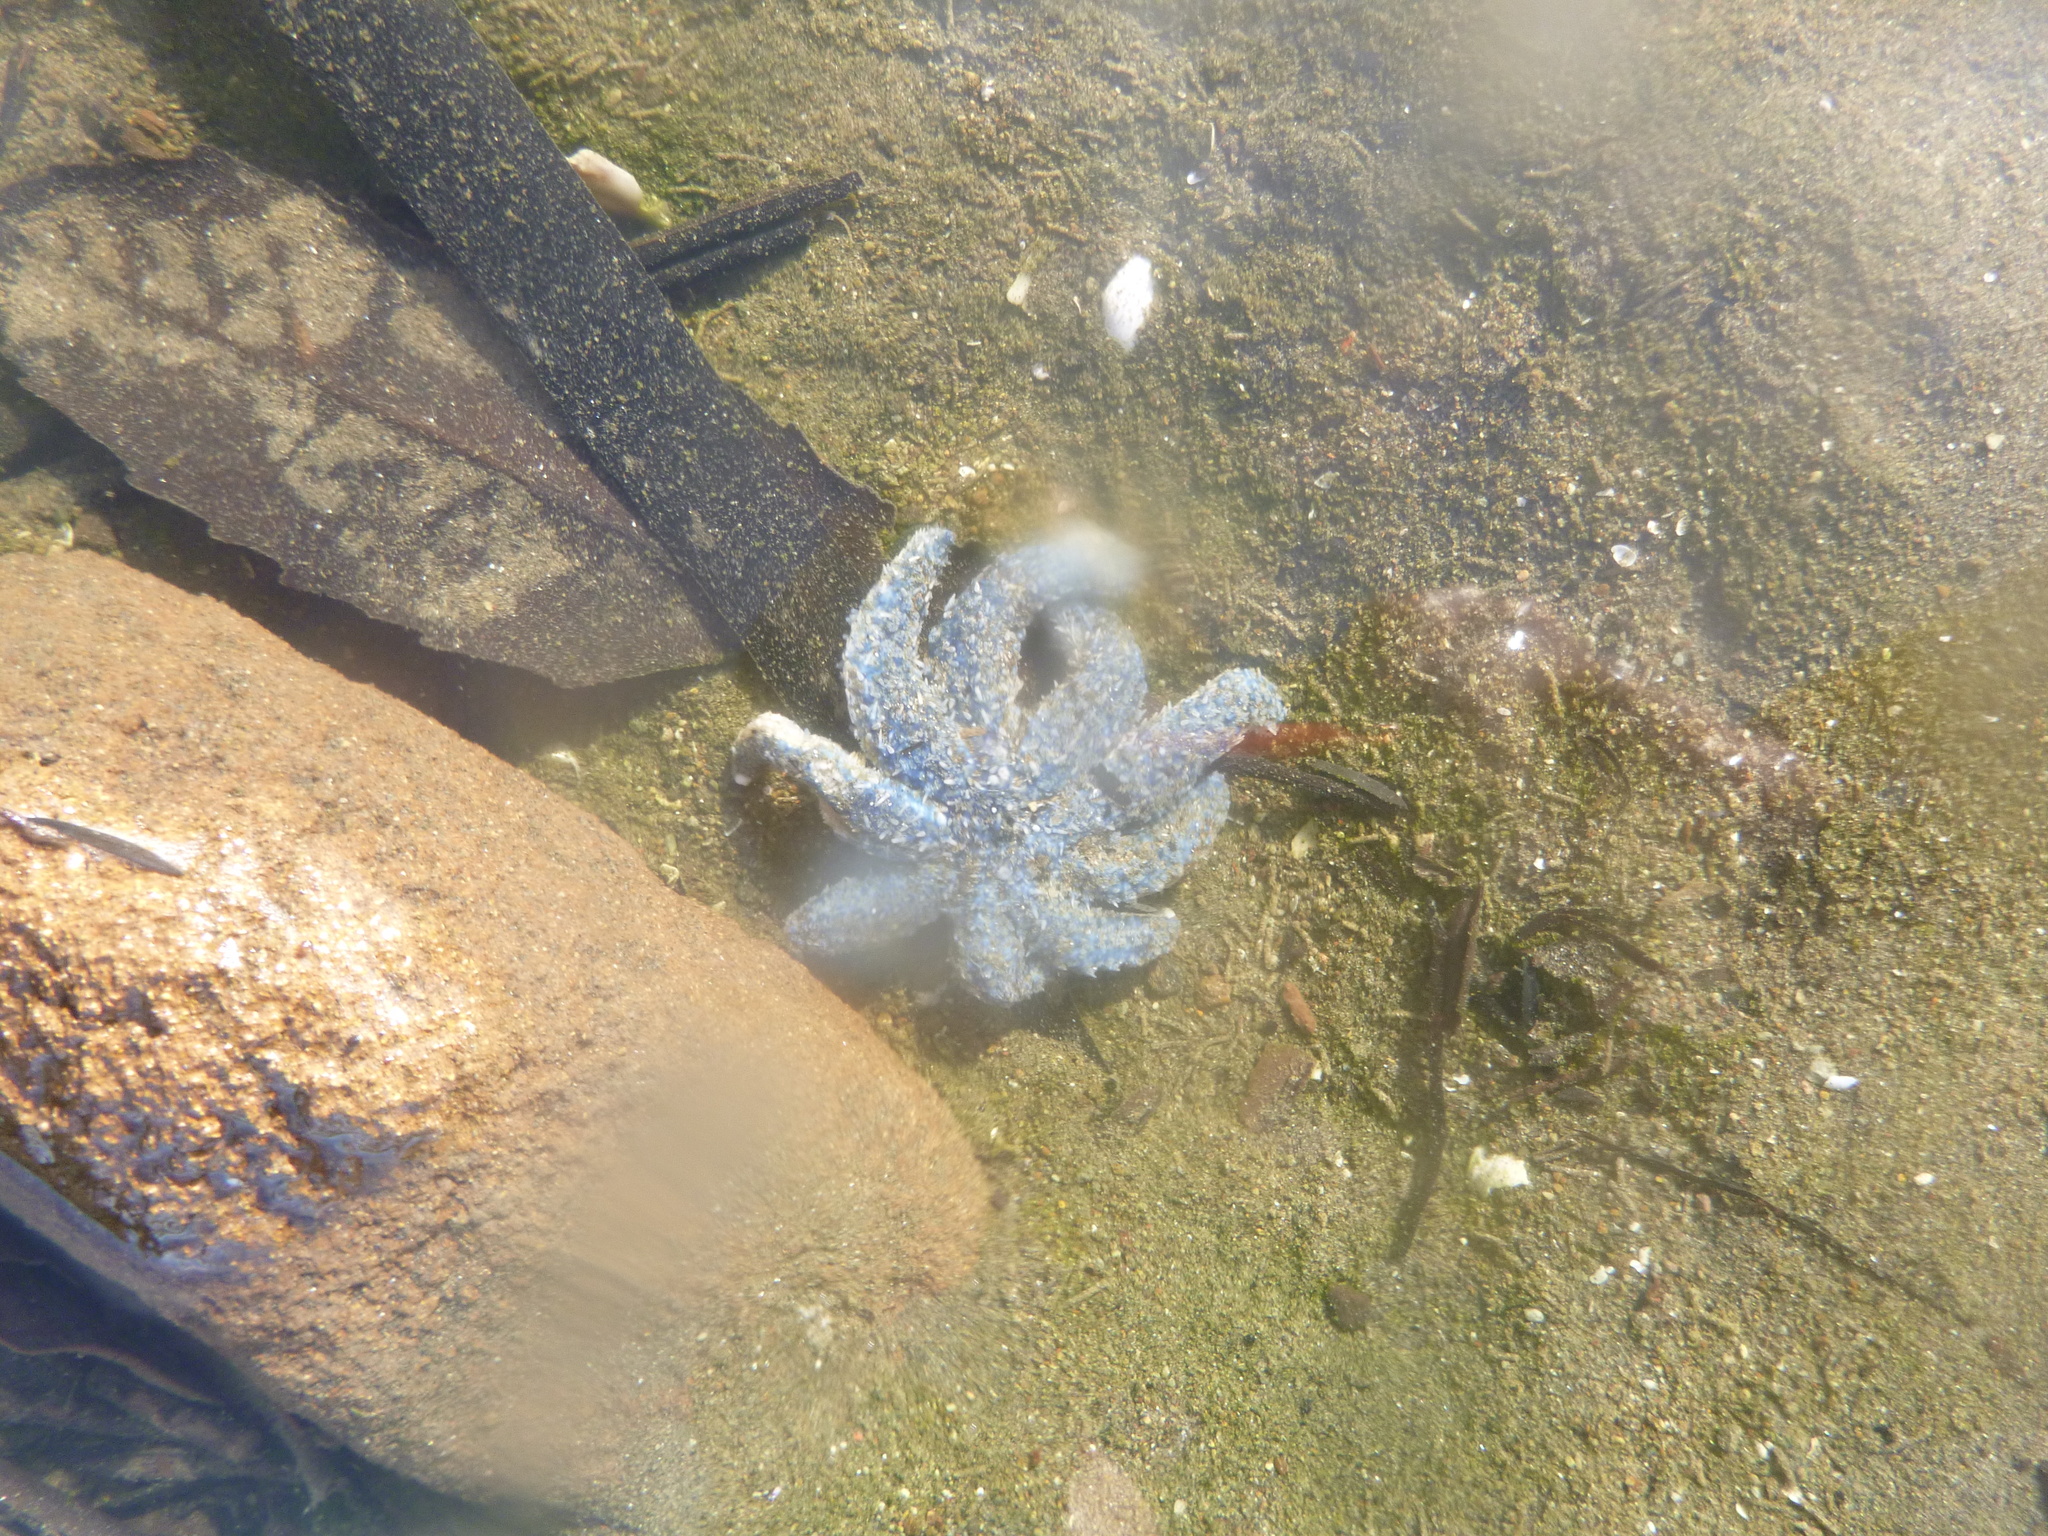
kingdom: Animalia
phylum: Echinodermata
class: Asteroidea
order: Forcipulatida
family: Asteriidae
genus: Coscinasterias
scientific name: Coscinasterias muricata
